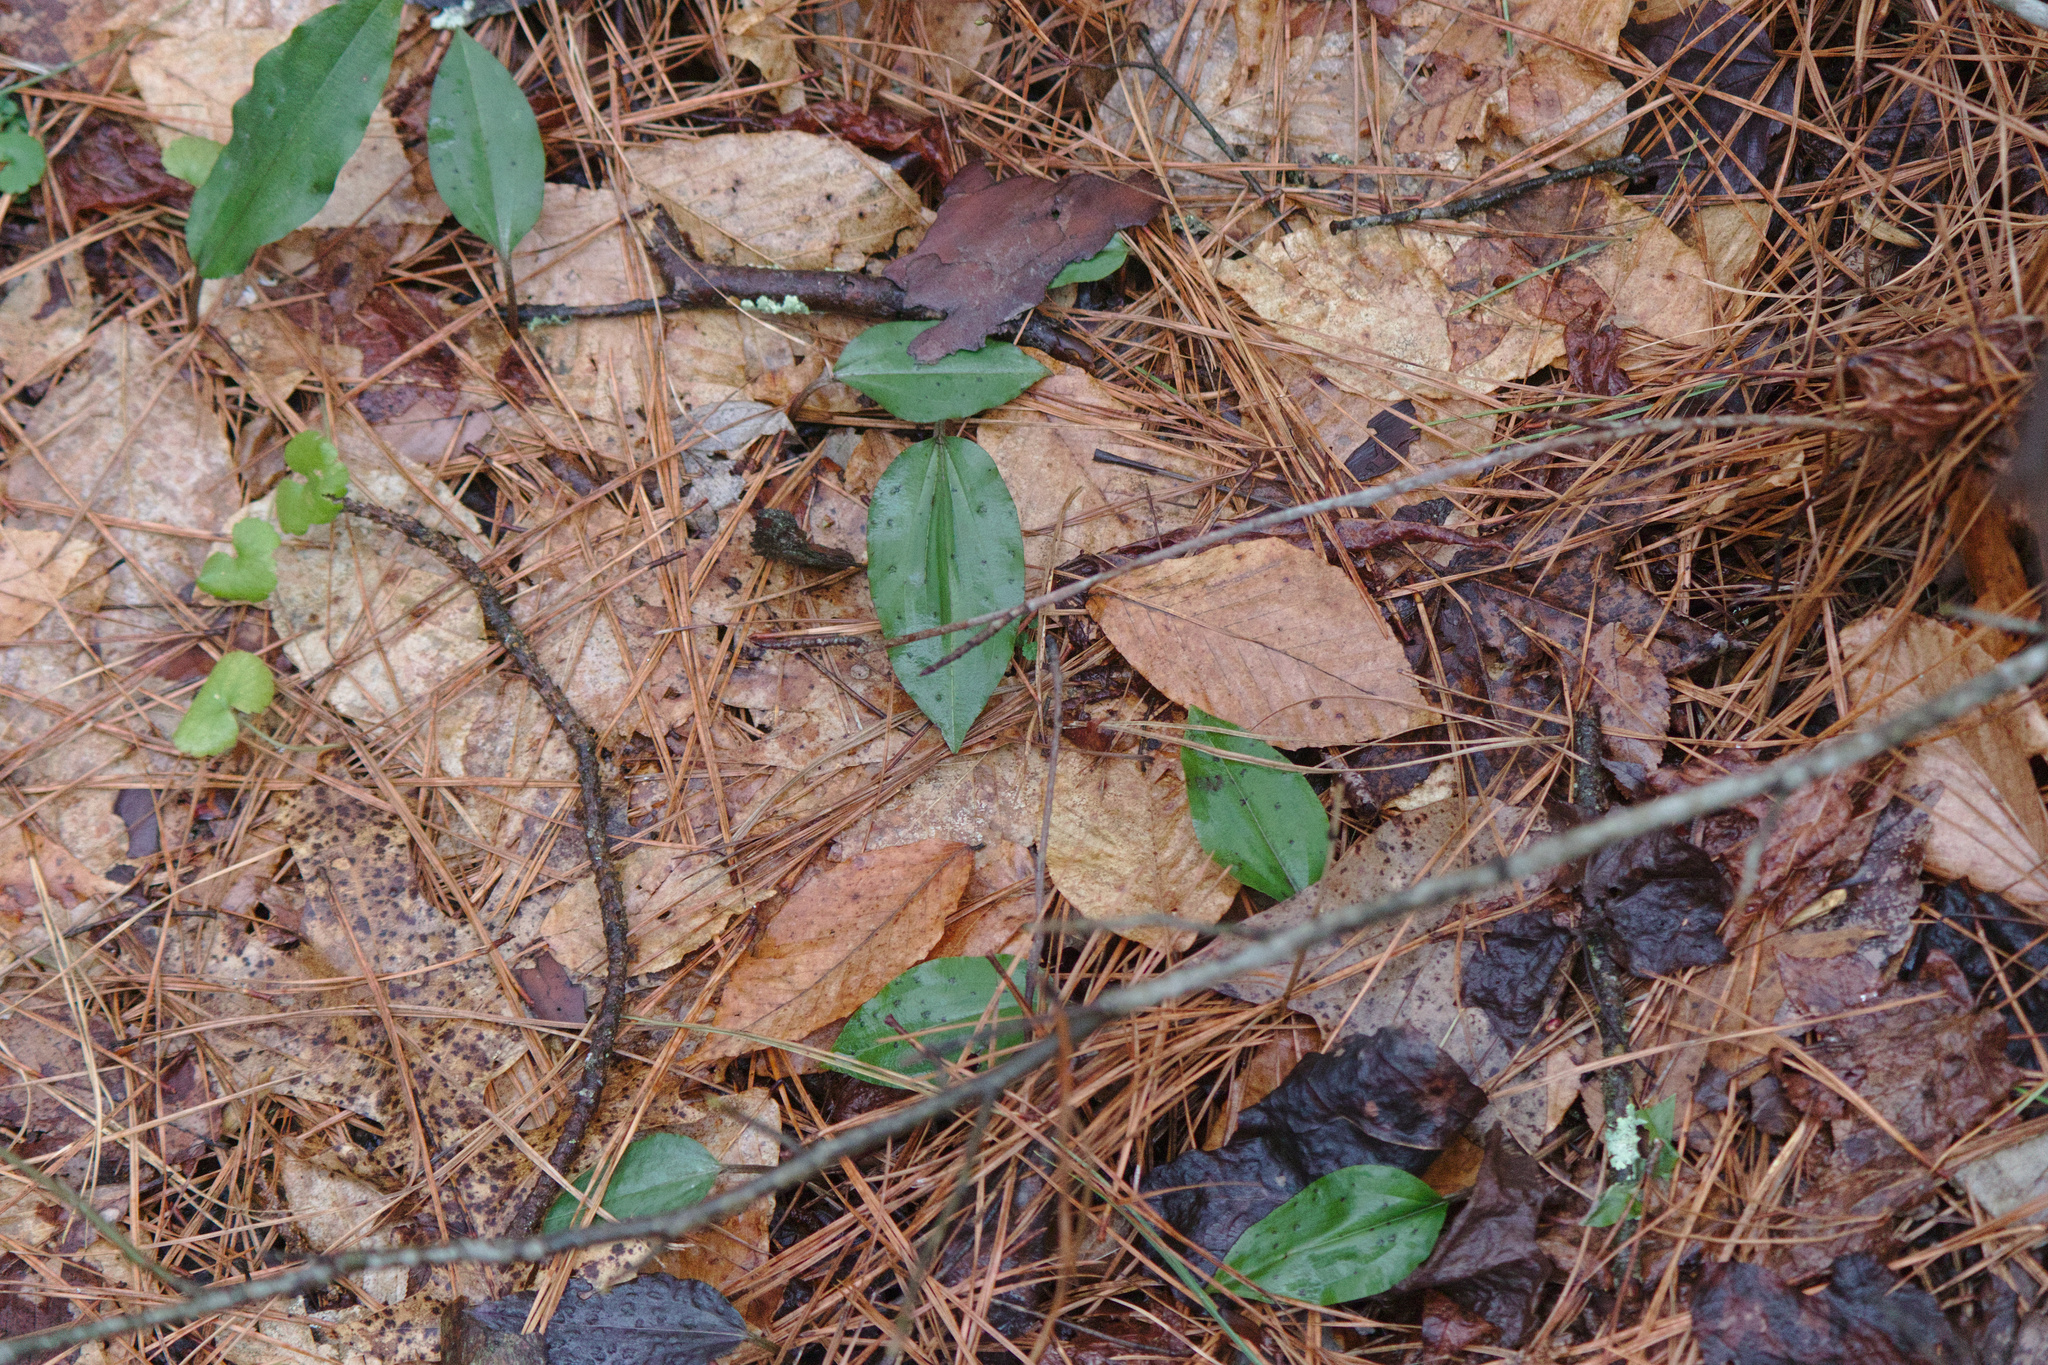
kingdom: Plantae
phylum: Tracheophyta
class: Liliopsida
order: Asparagales
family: Orchidaceae
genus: Tipularia
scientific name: Tipularia discolor
